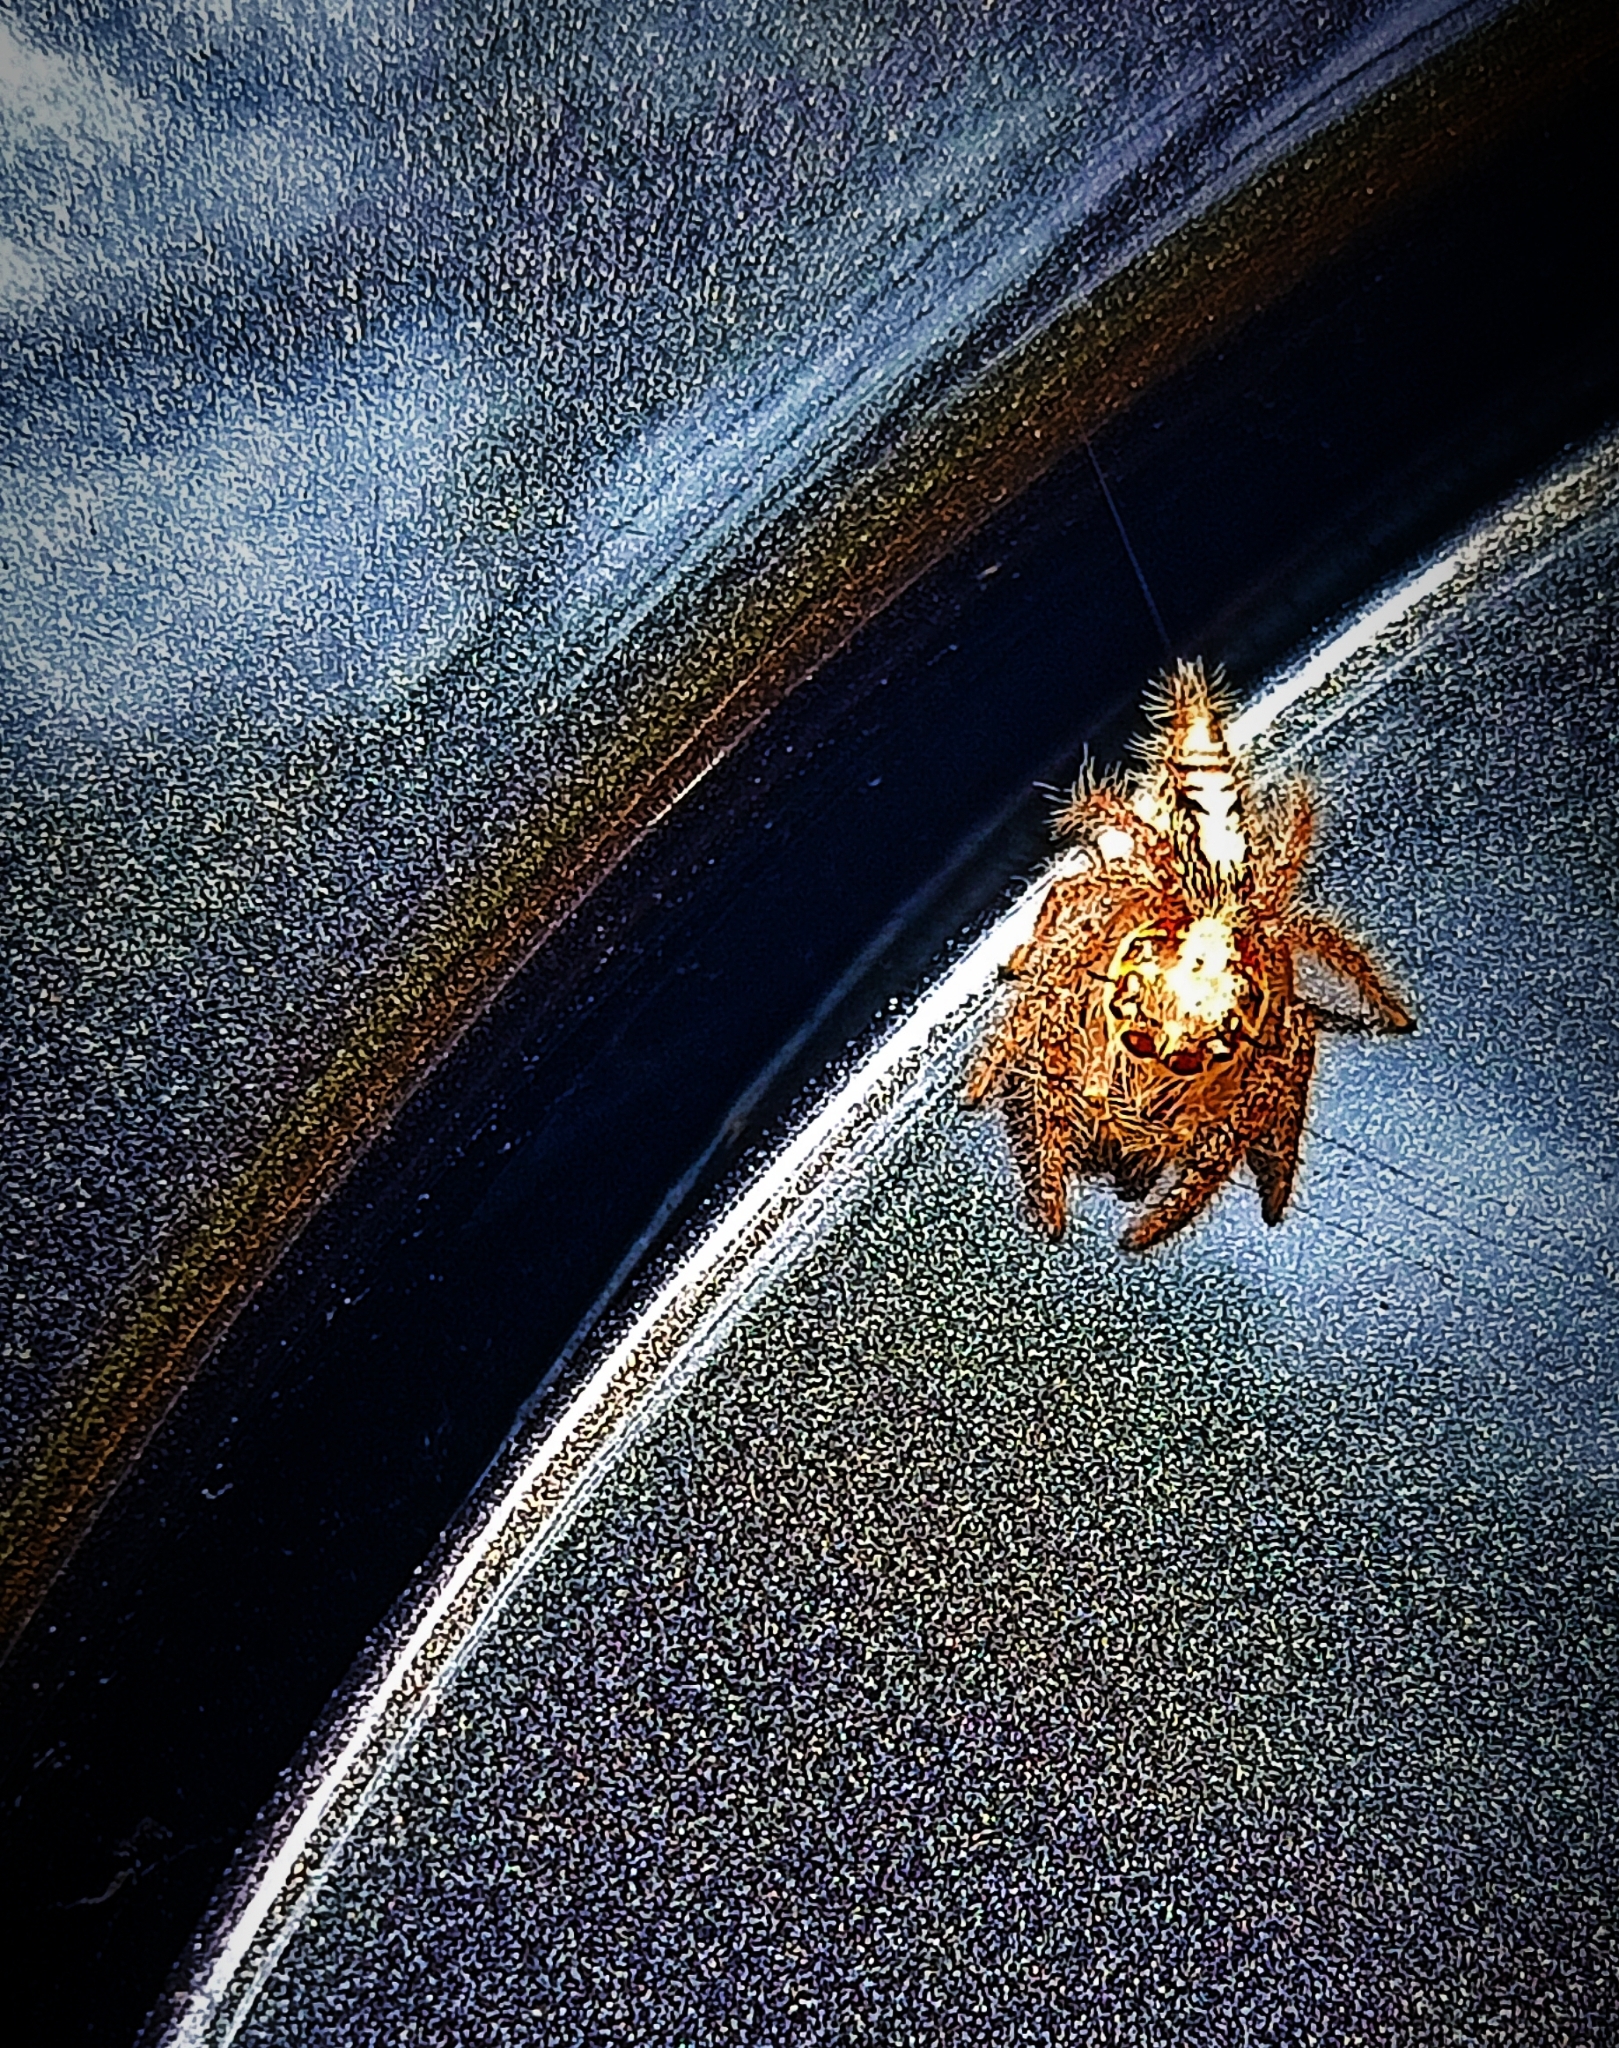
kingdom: Animalia
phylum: Arthropoda
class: Arachnida
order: Araneae
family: Salticidae
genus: Hyllus
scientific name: Hyllus semicupreus
